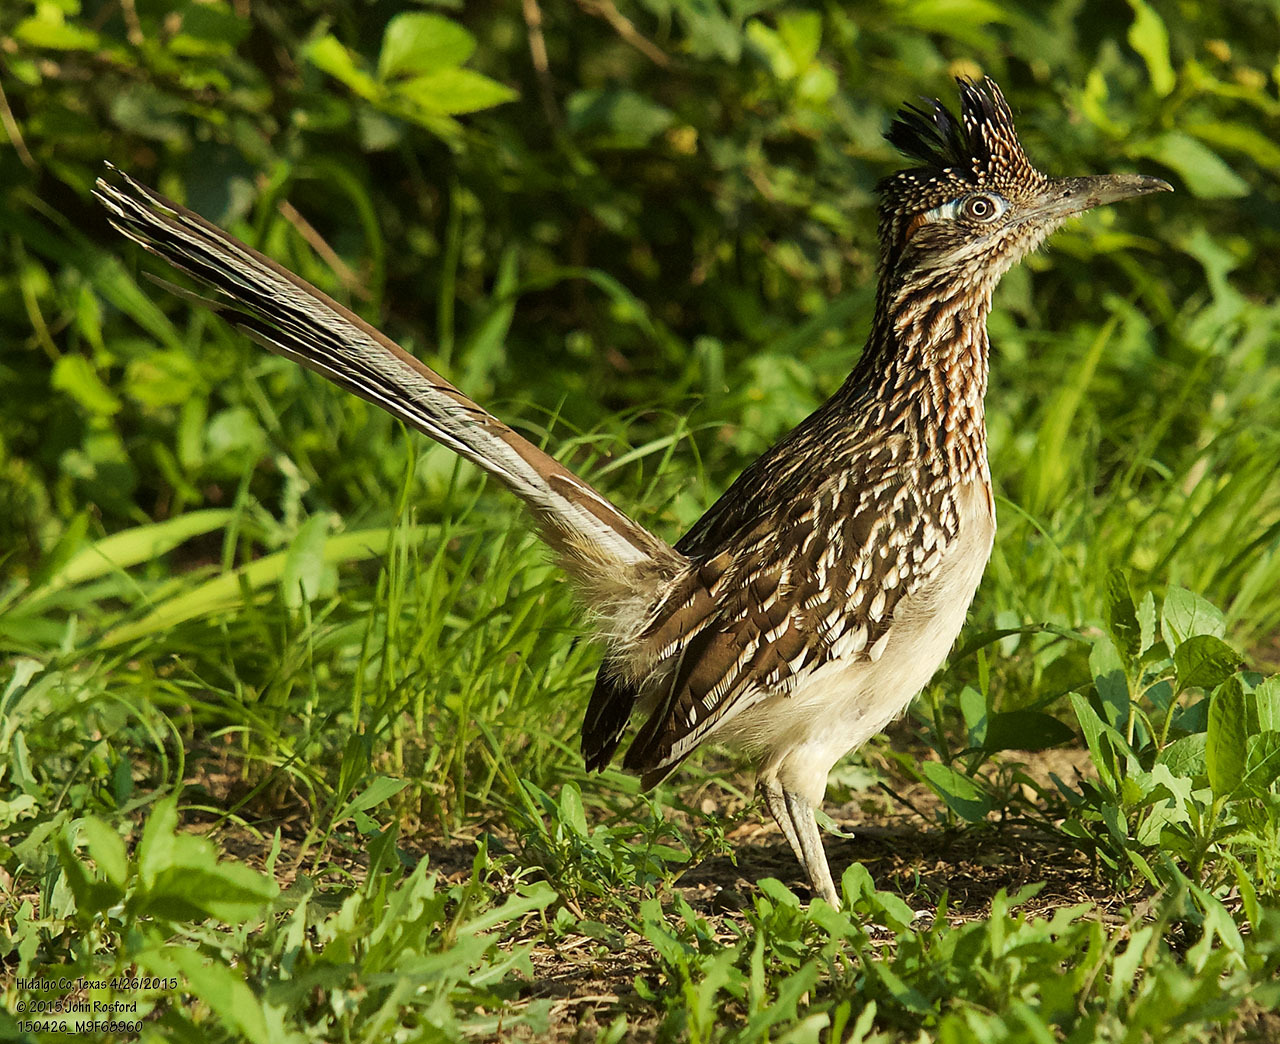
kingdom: Animalia
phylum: Chordata
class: Aves
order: Cuculiformes
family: Cuculidae
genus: Geococcyx
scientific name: Geococcyx californianus
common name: Greater roadrunner
